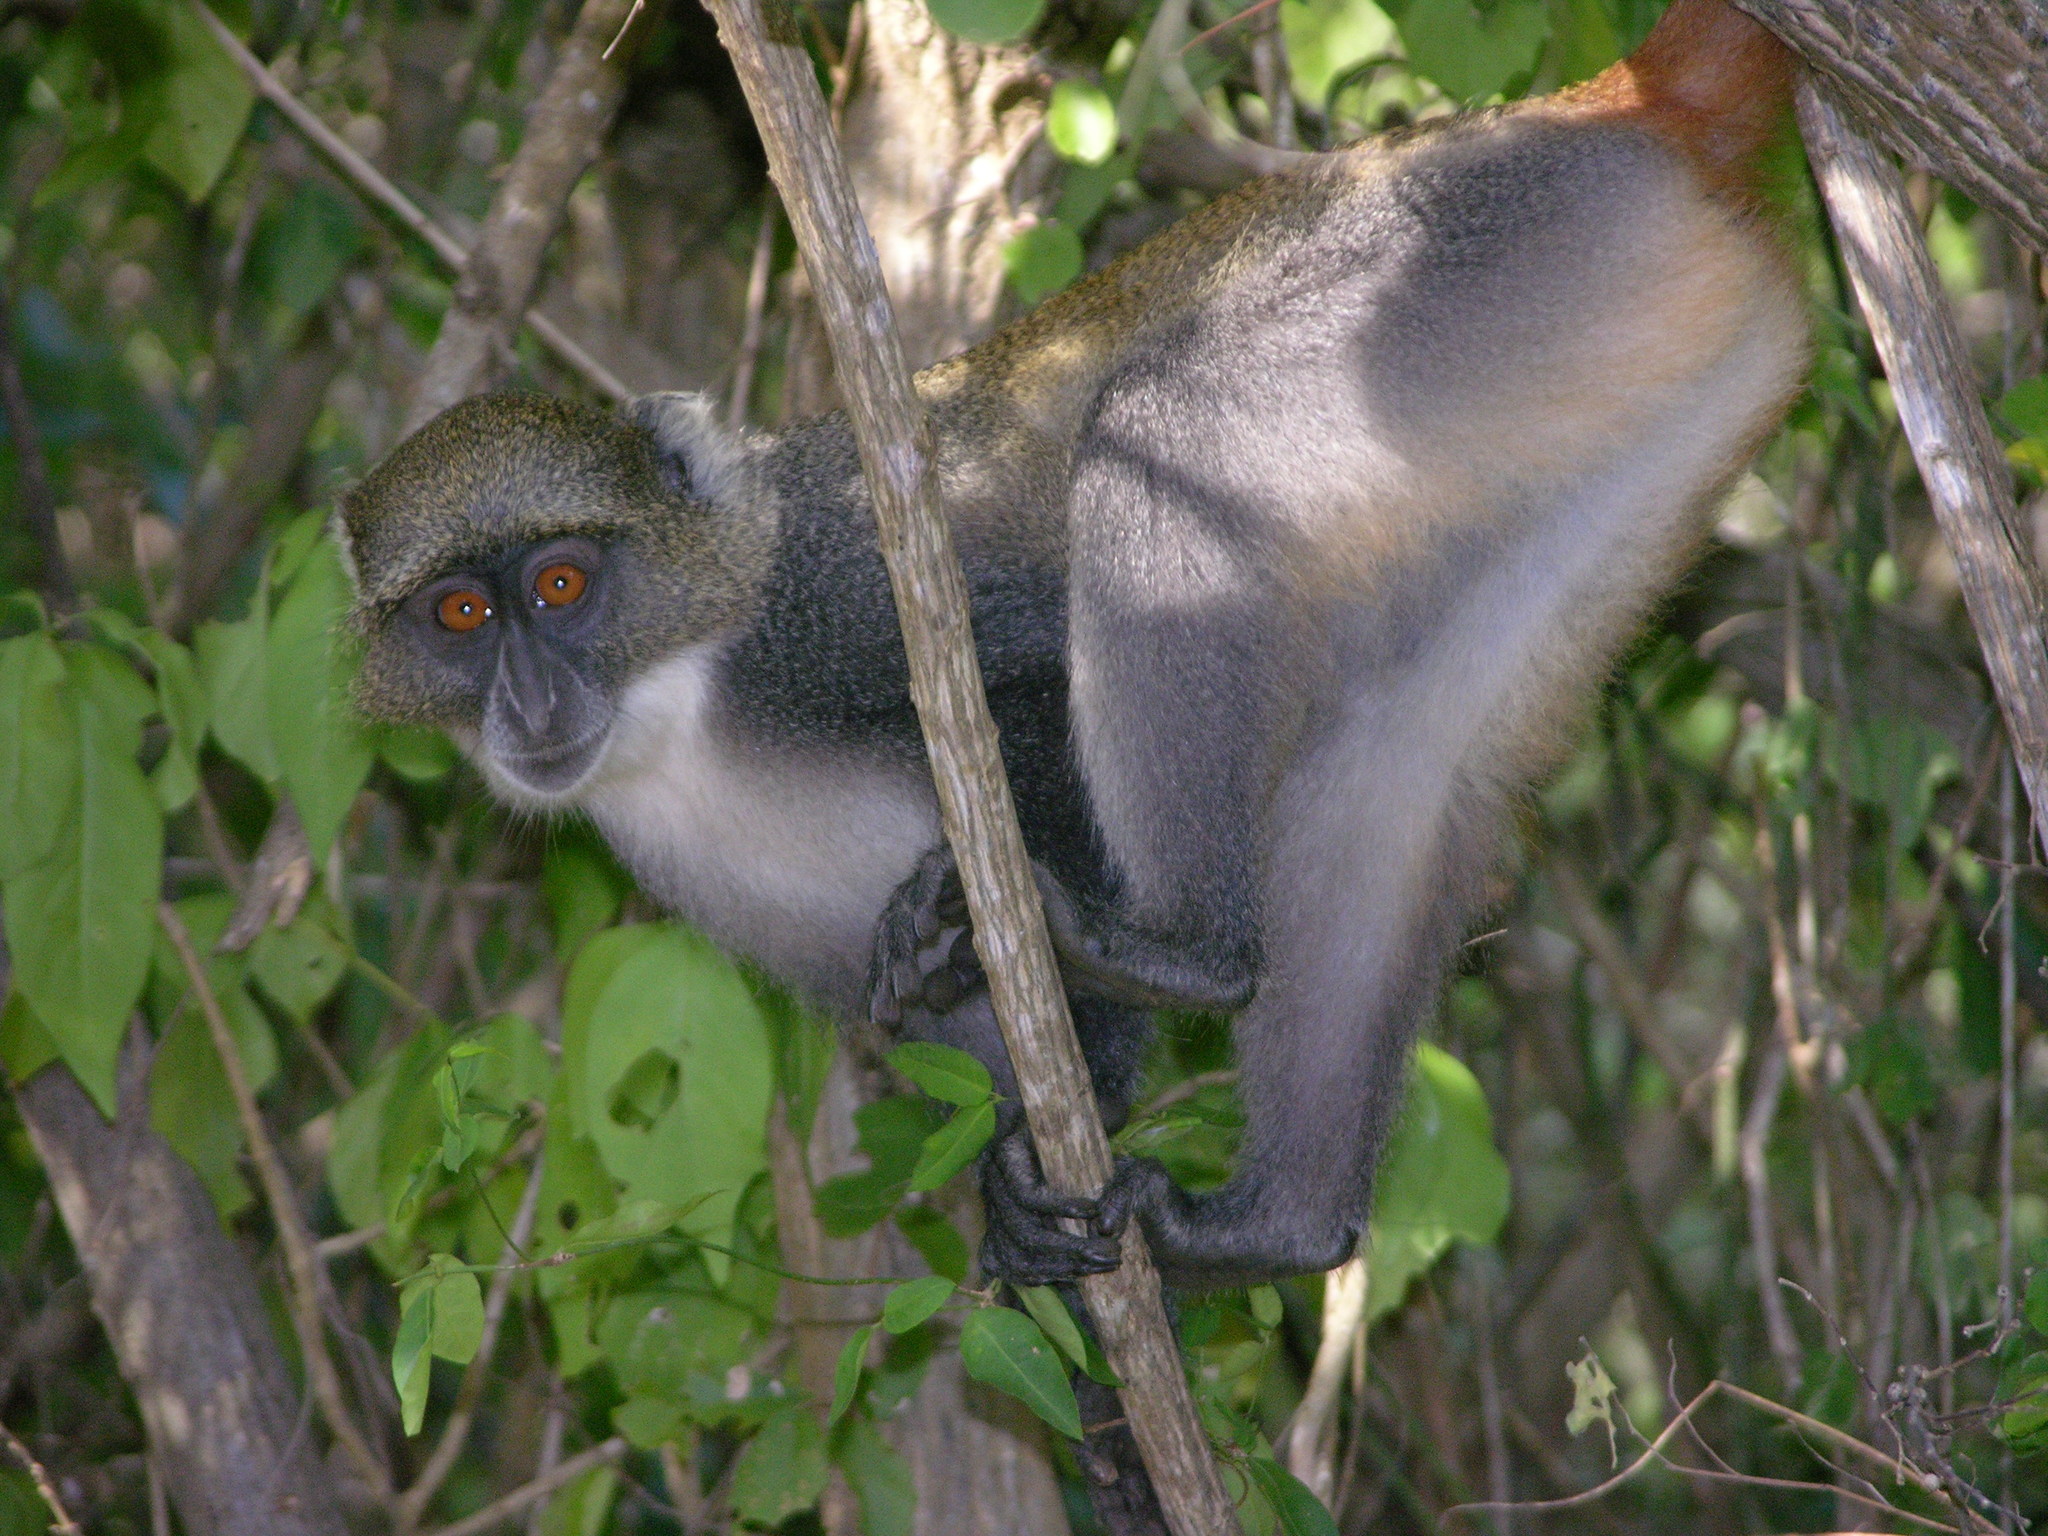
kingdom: Animalia
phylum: Chordata
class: Mammalia
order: Primates
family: Cercopithecidae
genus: Cercopithecus
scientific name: Cercopithecus mitis
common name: Blue monkey
